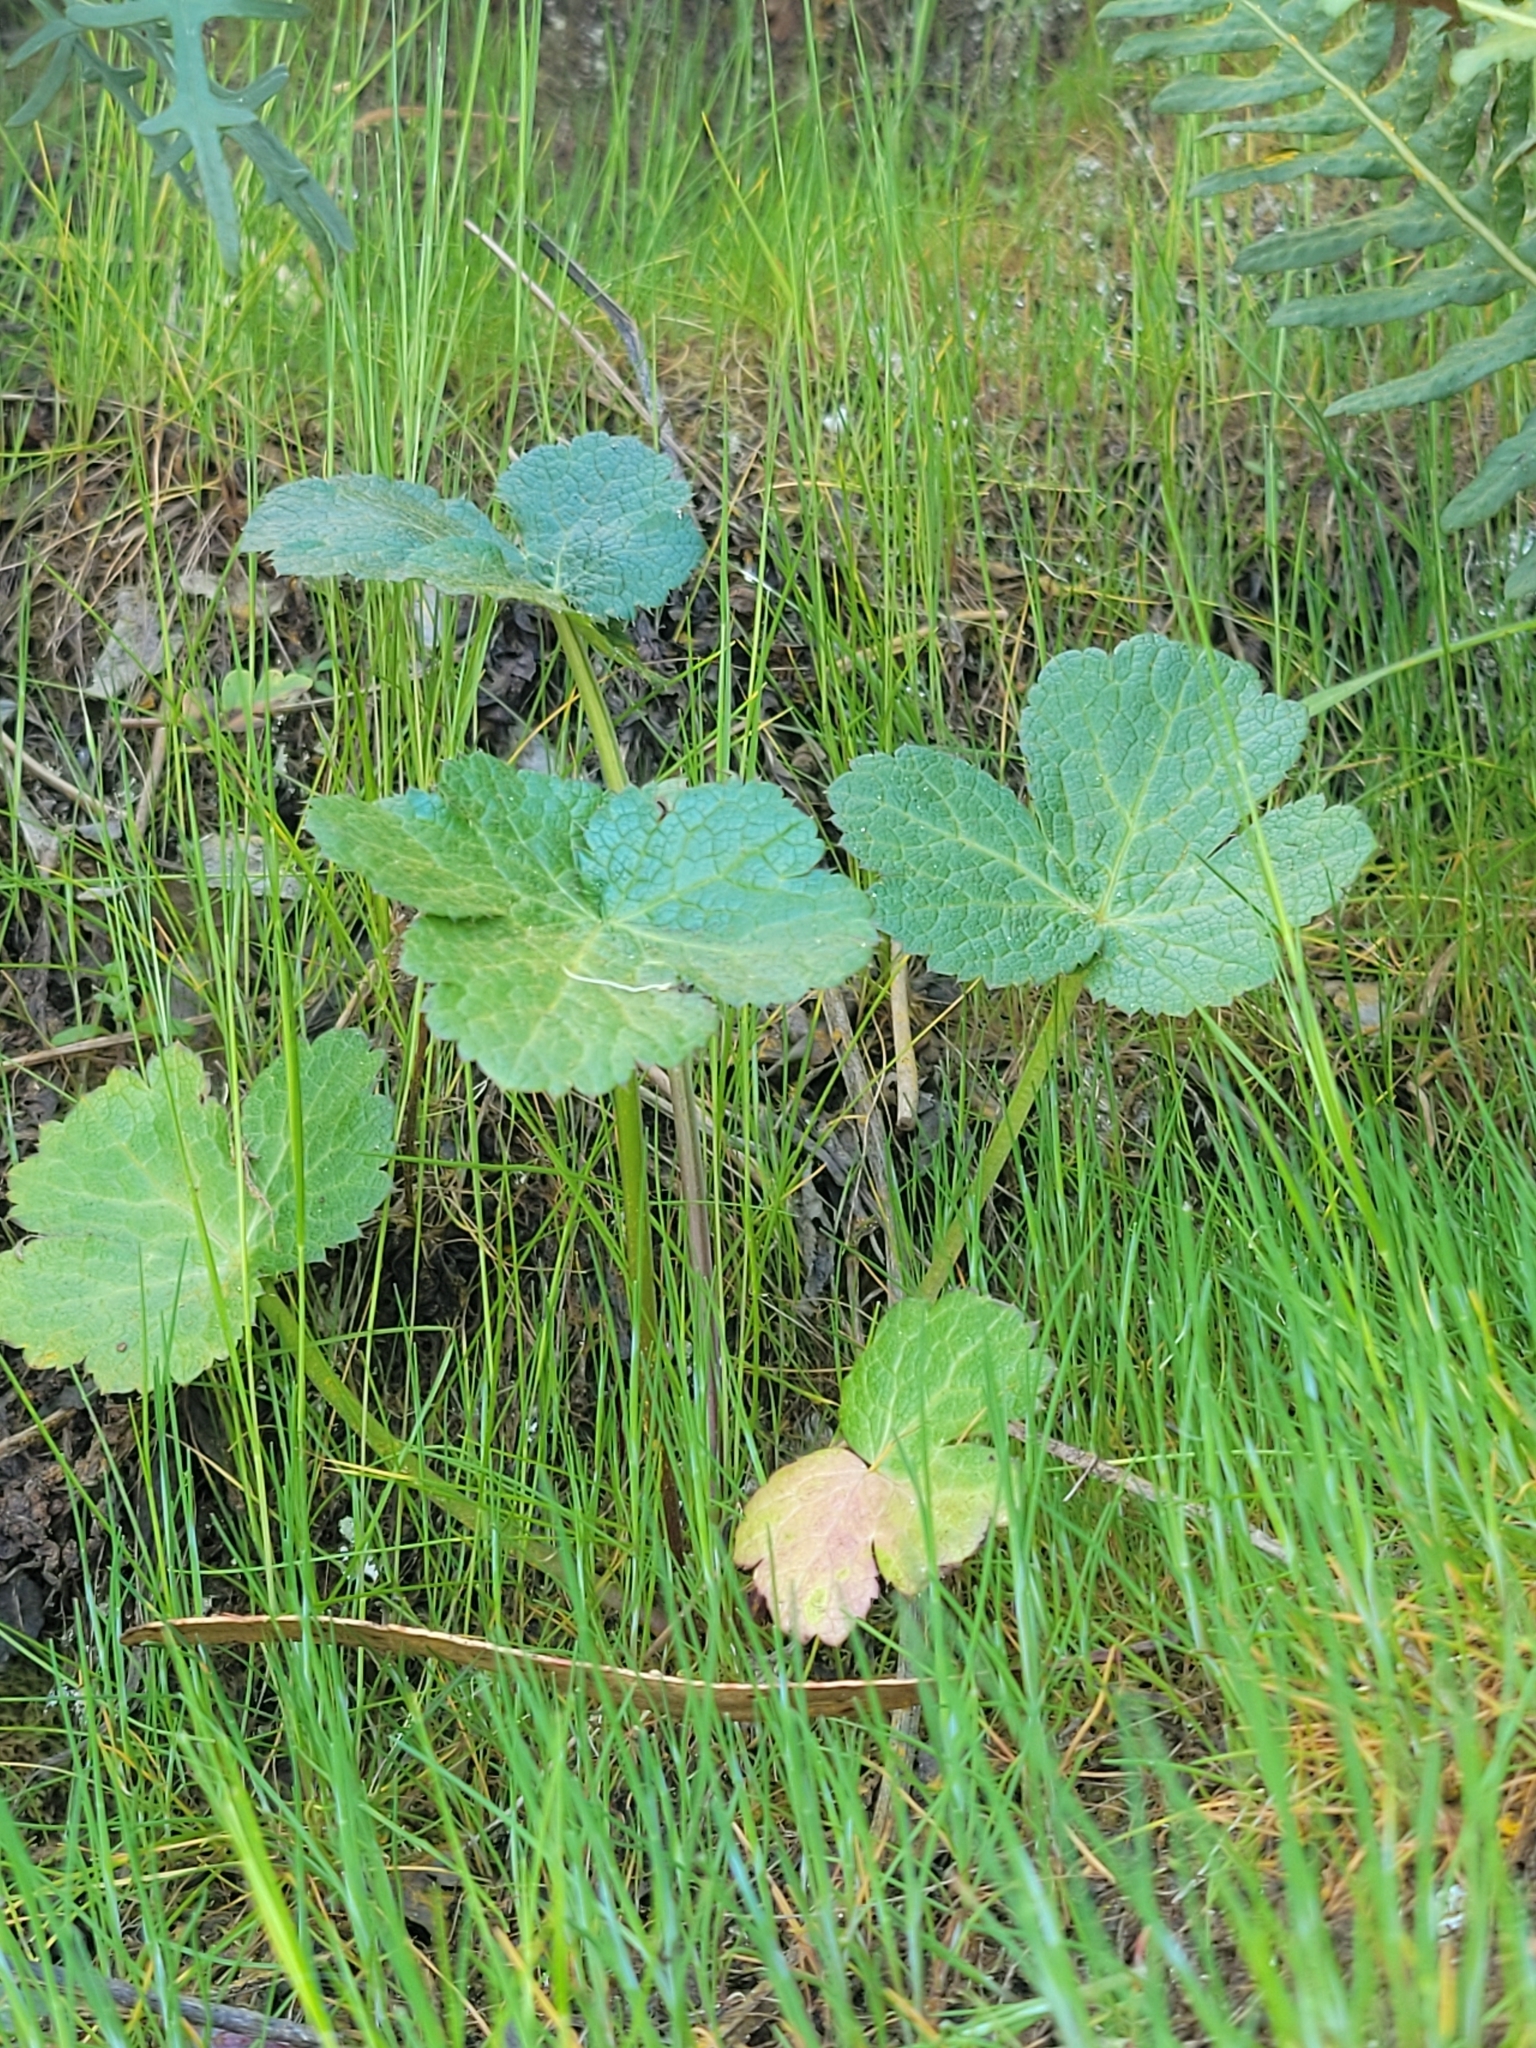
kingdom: Plantae
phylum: Tracheophyta
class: Magnoliopsida
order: Apiales
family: Apiaceae
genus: Sanicula
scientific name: Sanicula crassicaulis
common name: Western snakeroot
